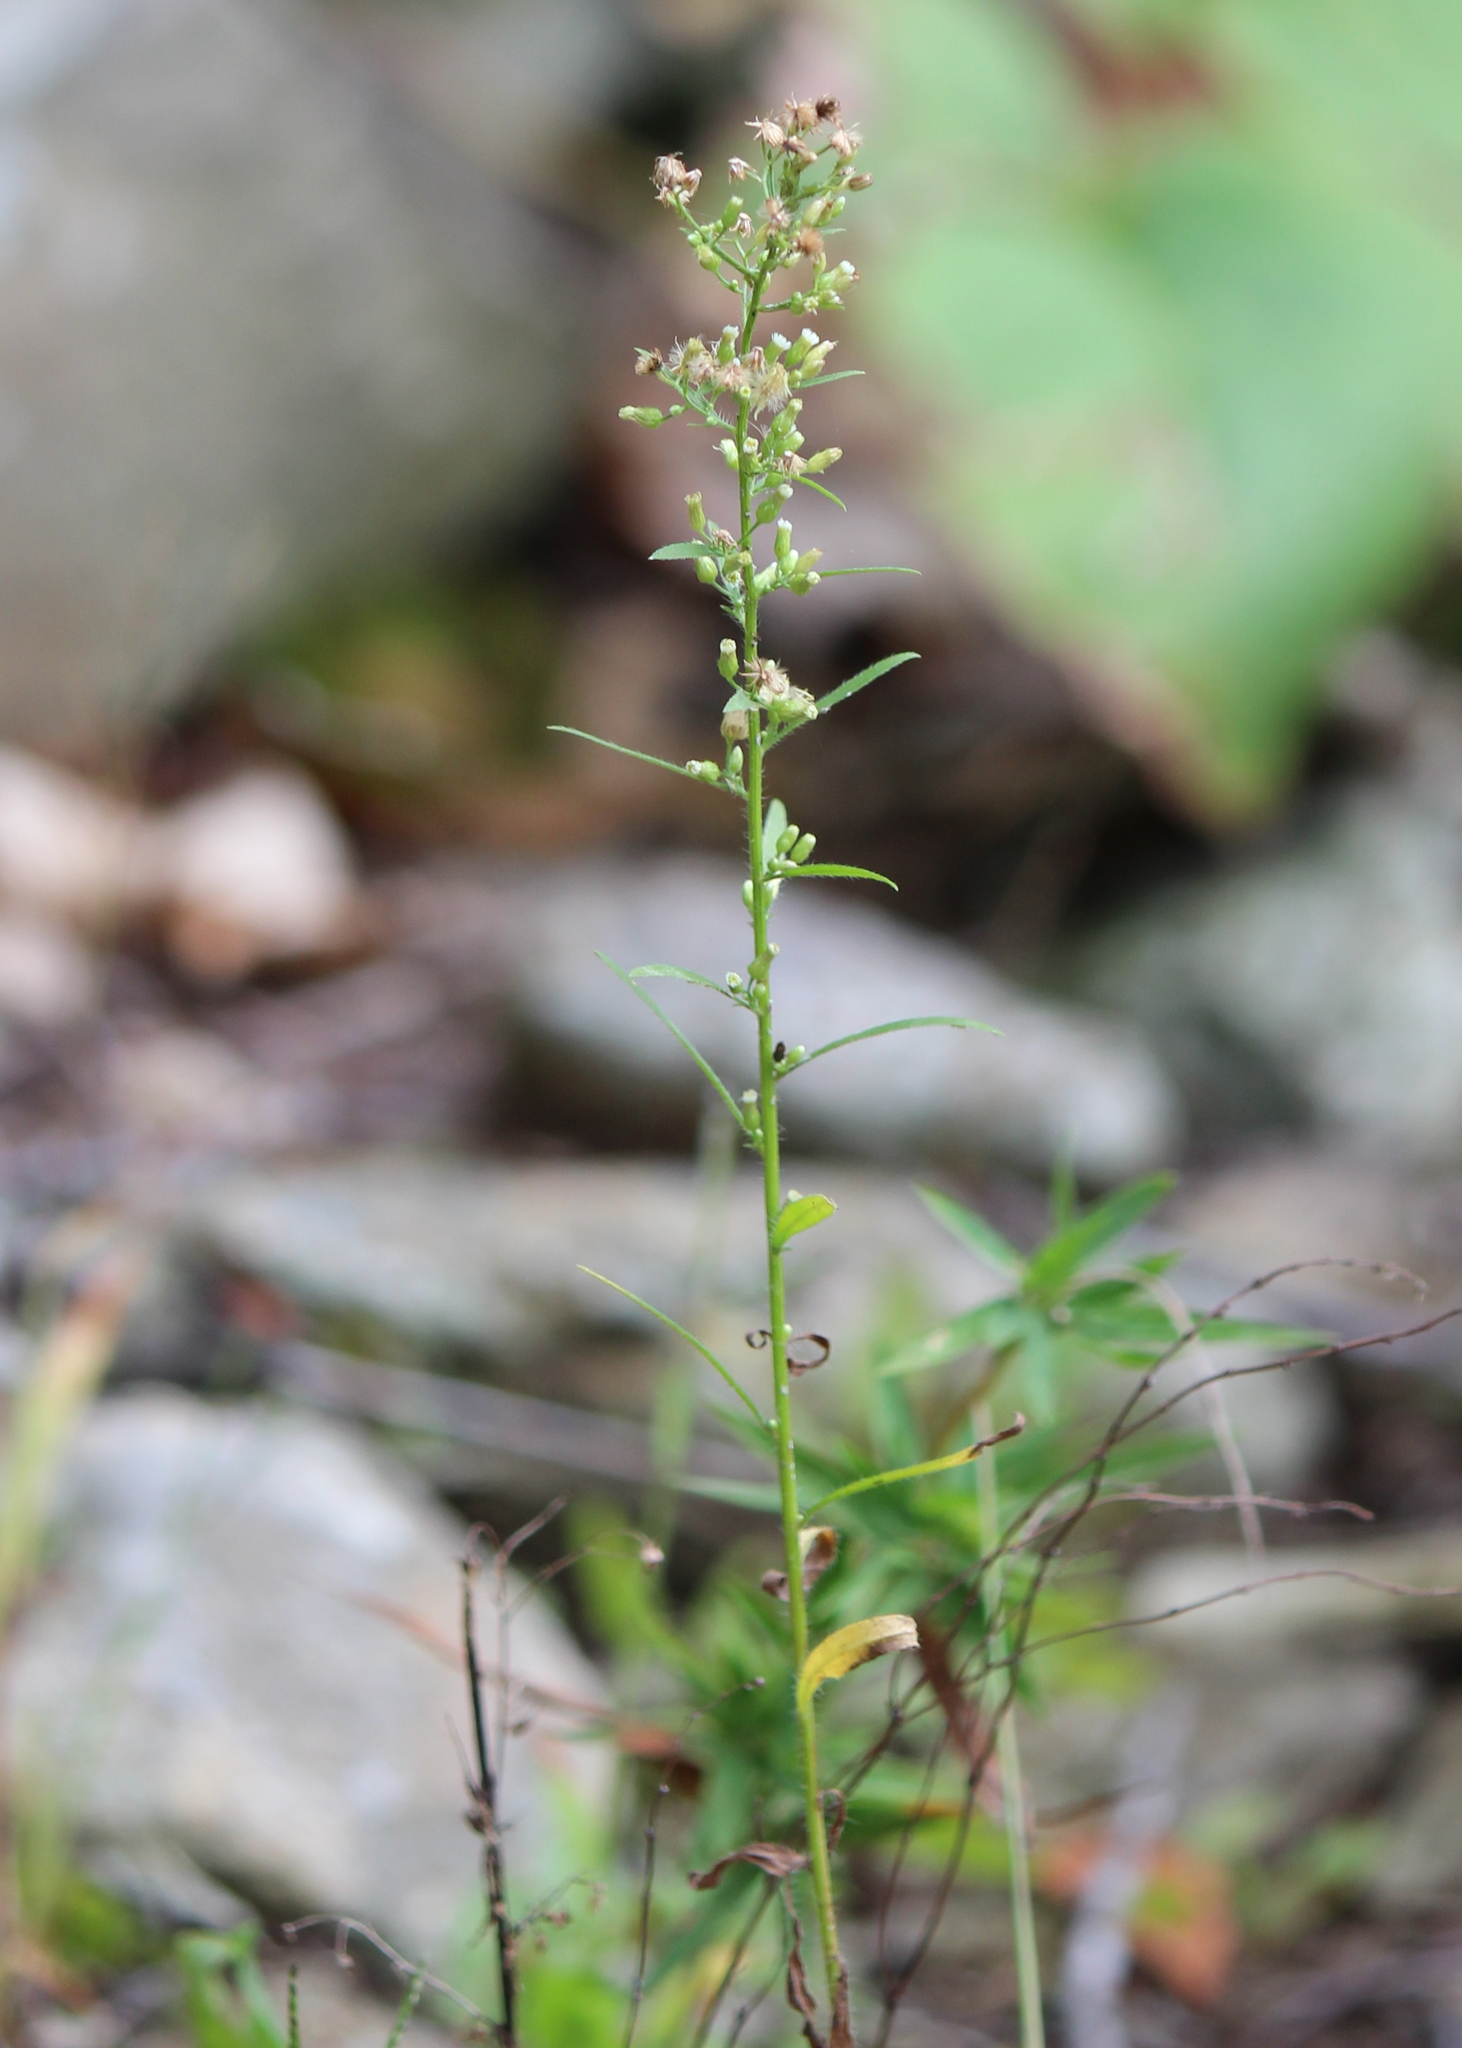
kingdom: Plantae
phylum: Tracheophyta
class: Magnoliopsida
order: Asterales
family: Asteraceae
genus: Erigeron
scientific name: Erigeron canadensis
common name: Canadian fleabane
